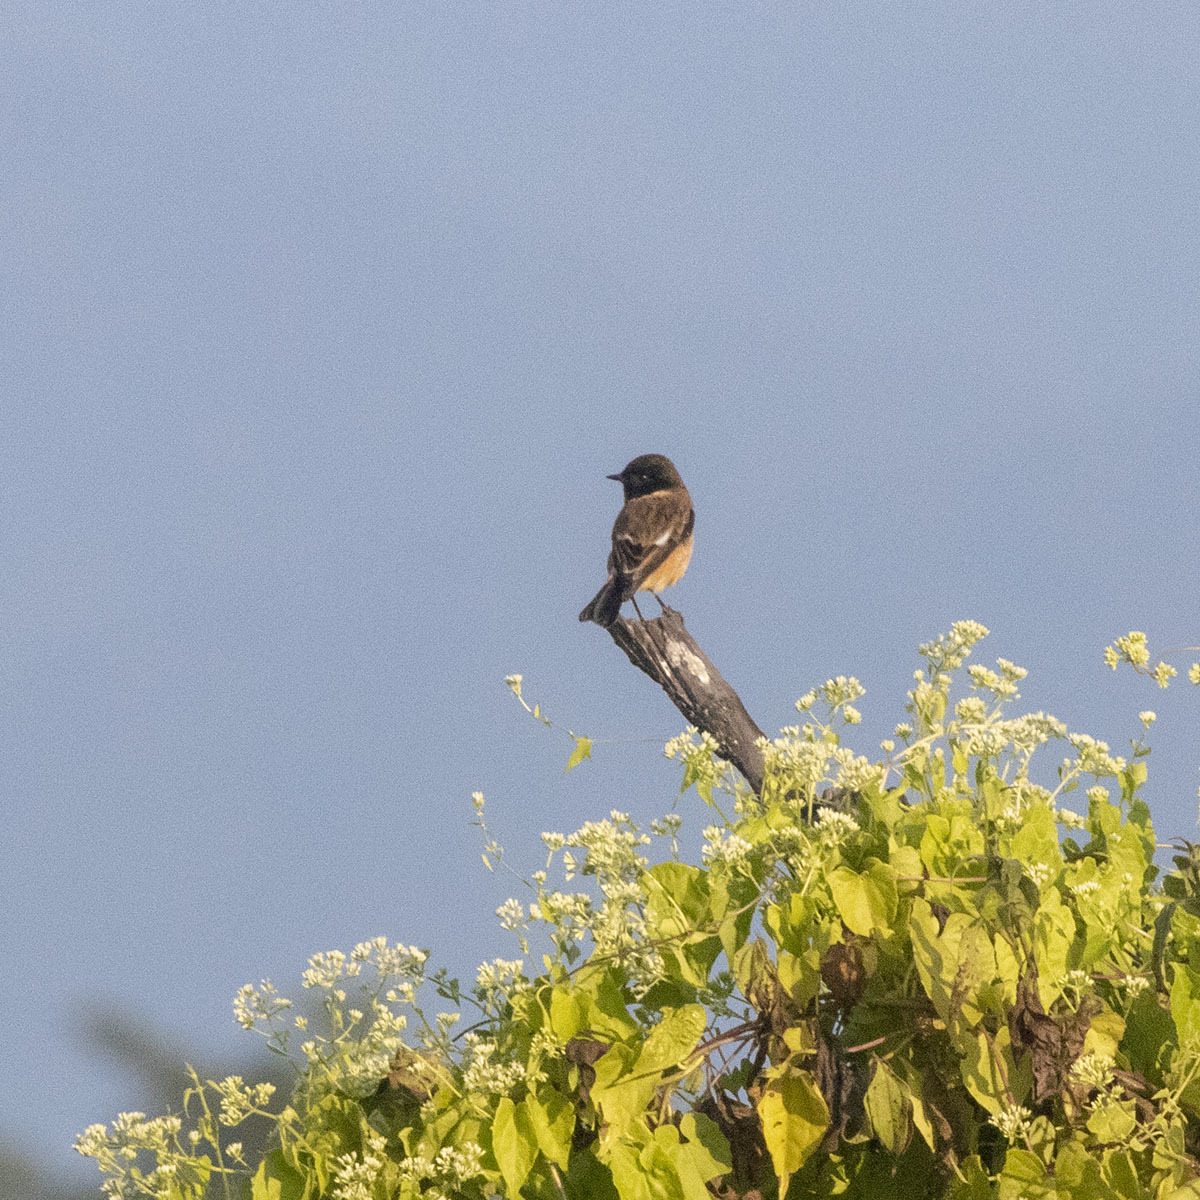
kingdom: Animalia
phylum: Chordata
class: Aves
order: Passeriformes
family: Muscicapidae
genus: Saxicola
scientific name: Saxicola maurus
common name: Siberian stonechat
